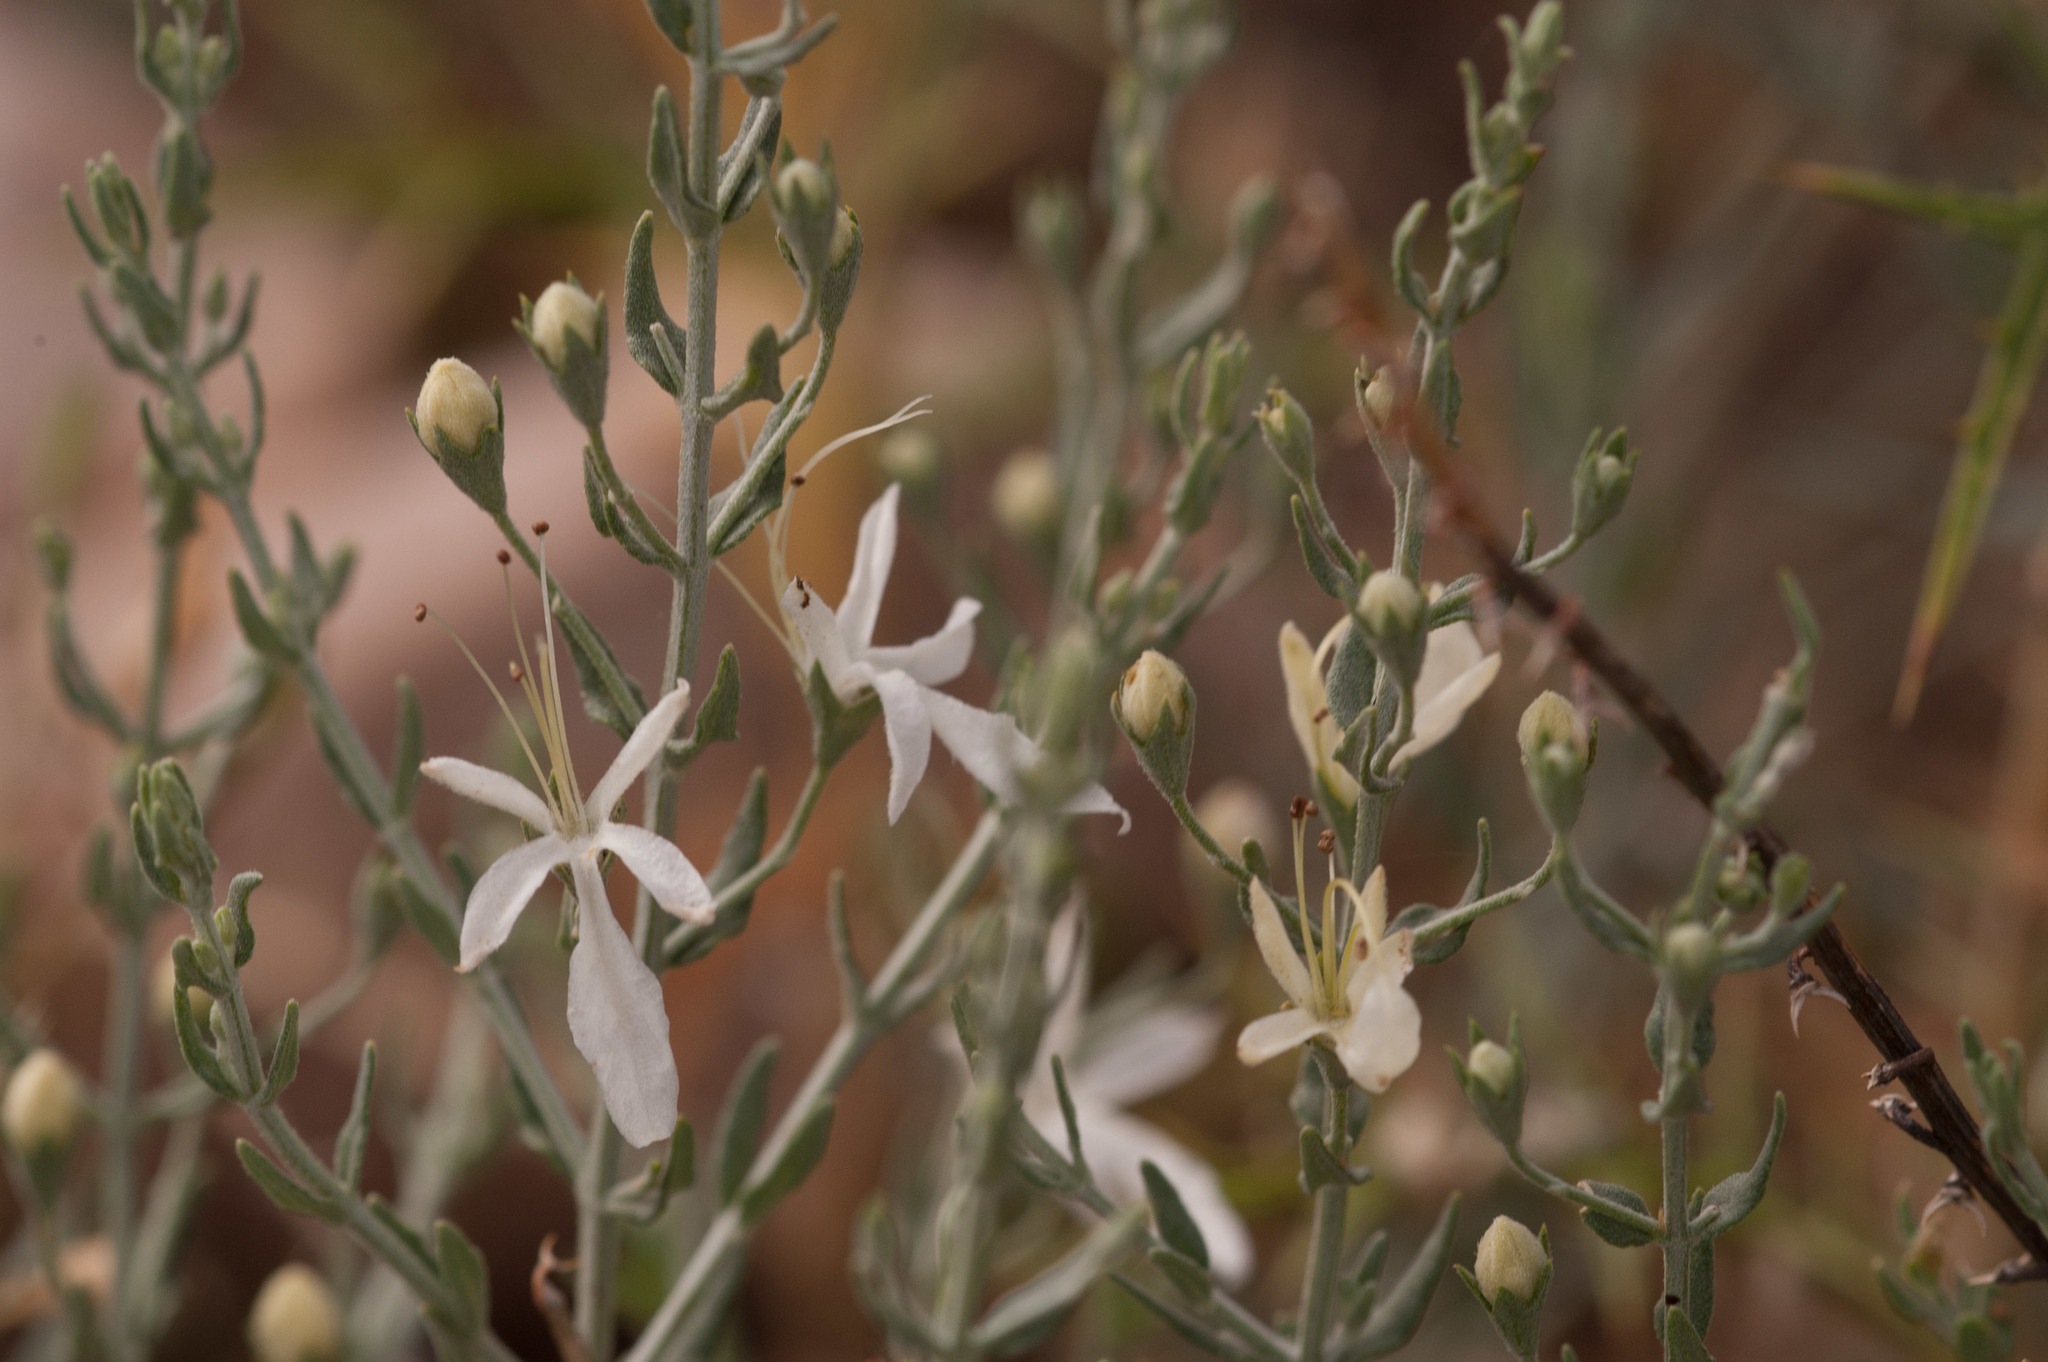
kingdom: Plantae
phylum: Tracheophyta
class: Magnoliopsida
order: Lamiales
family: Lamiaceae
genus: Teucrium
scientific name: Teucrium racemosum
